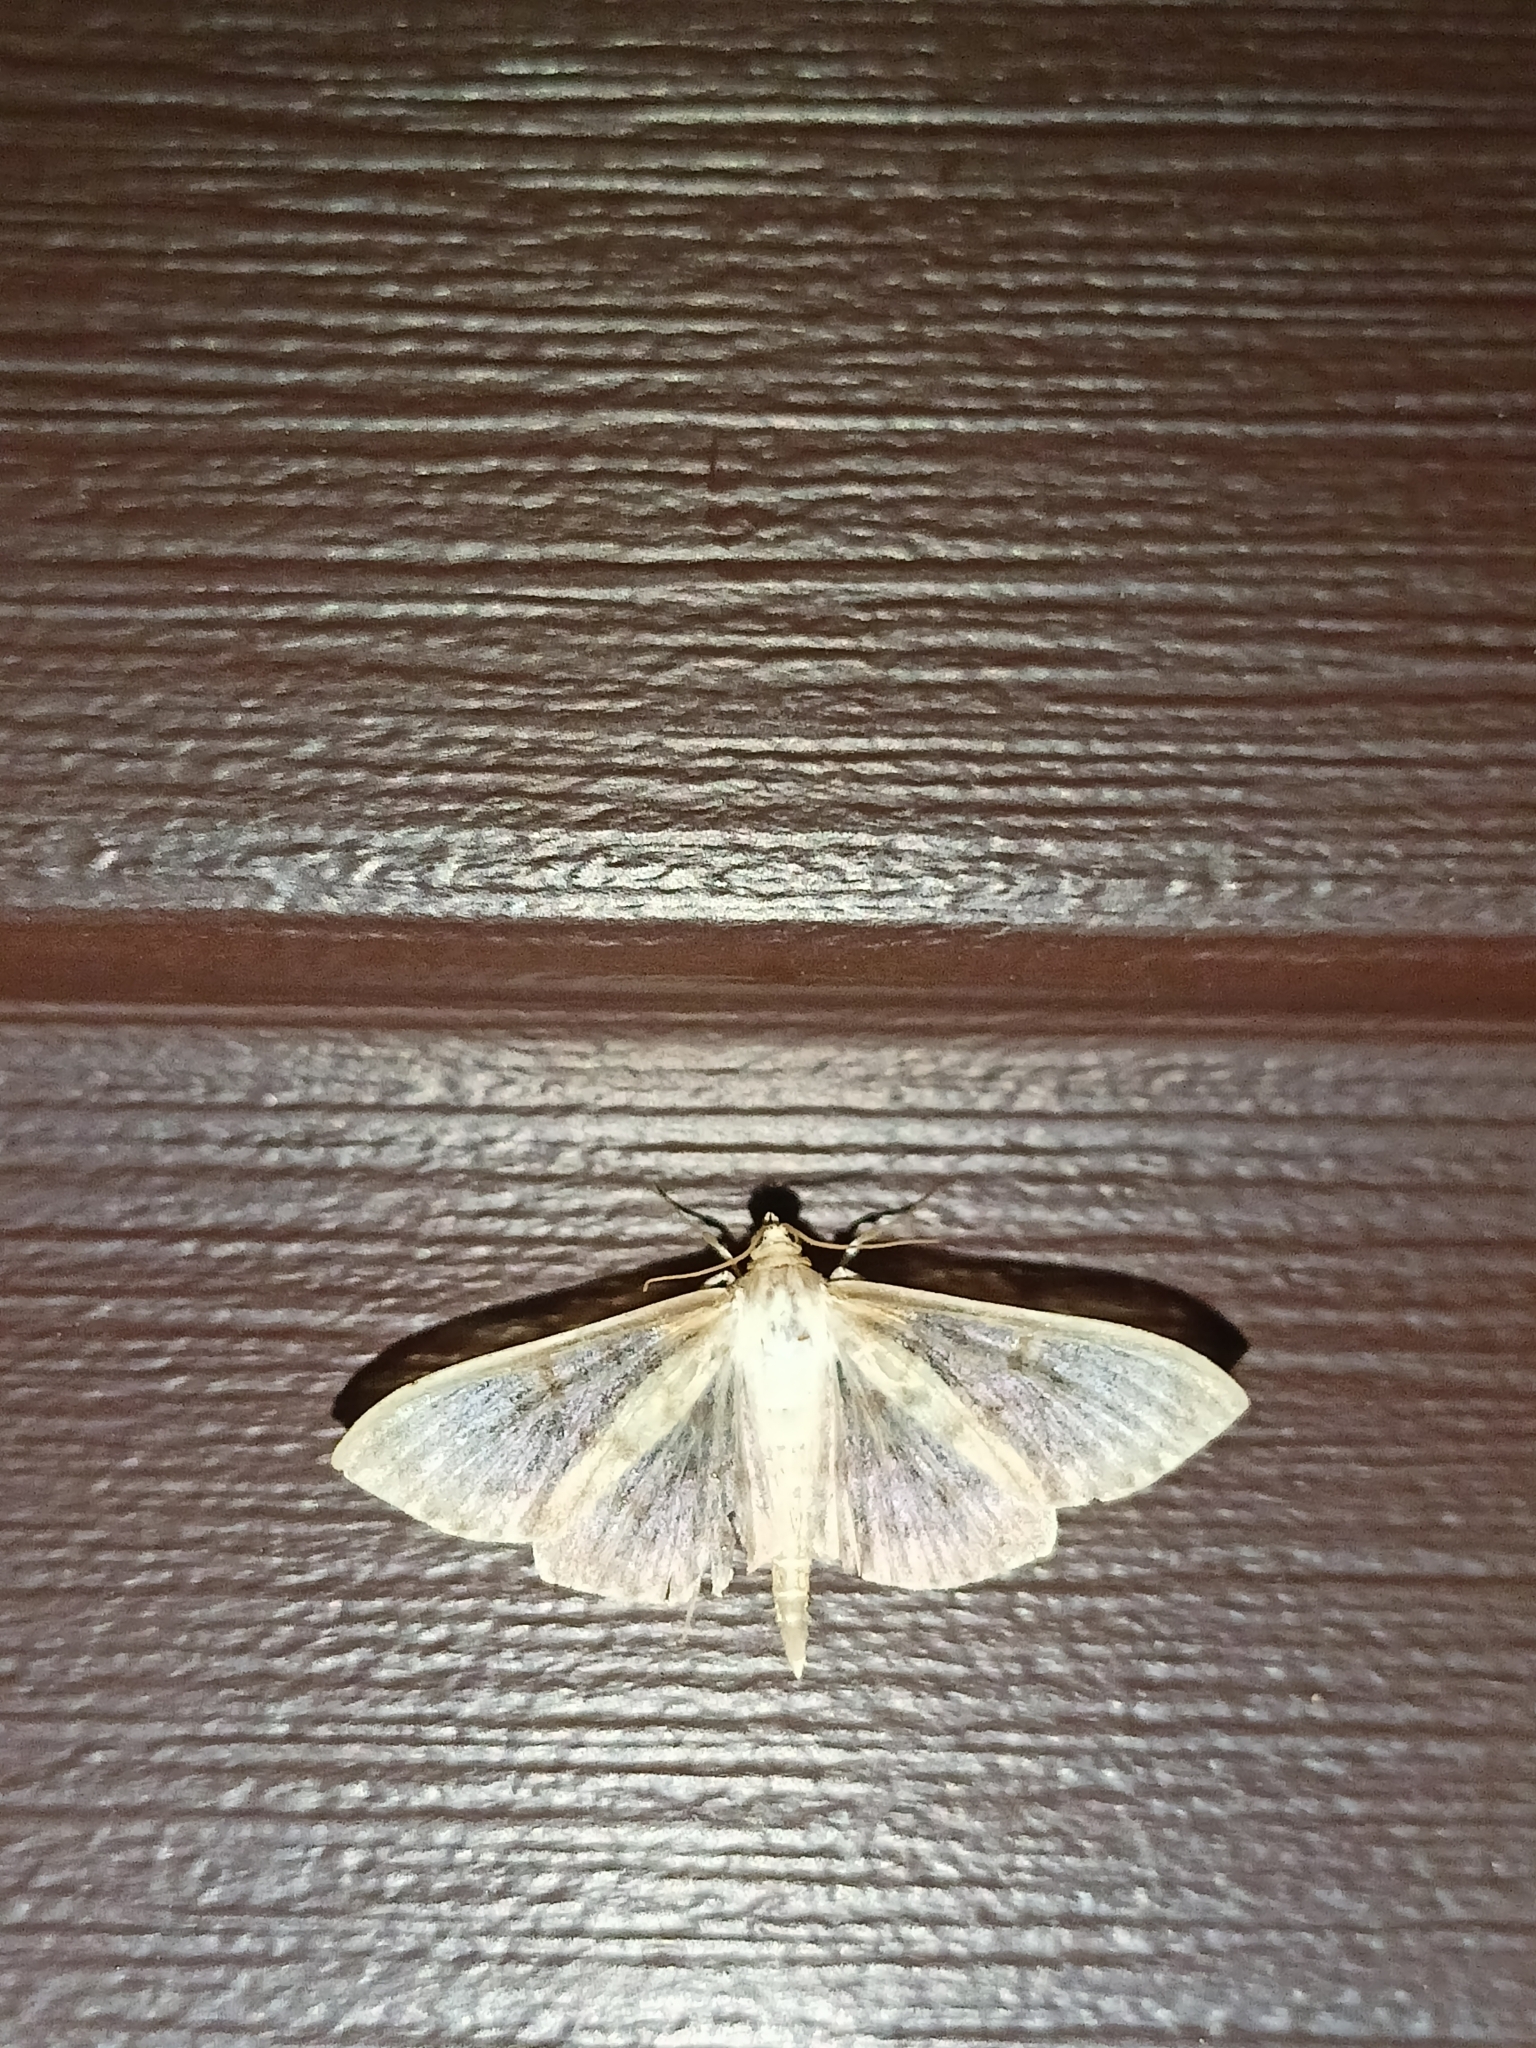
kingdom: Animalia
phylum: Arthropoda
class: Insecta
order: Lepidoptera
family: Crambidae
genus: Patania
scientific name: Patania ruralis
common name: Mother of pearl
